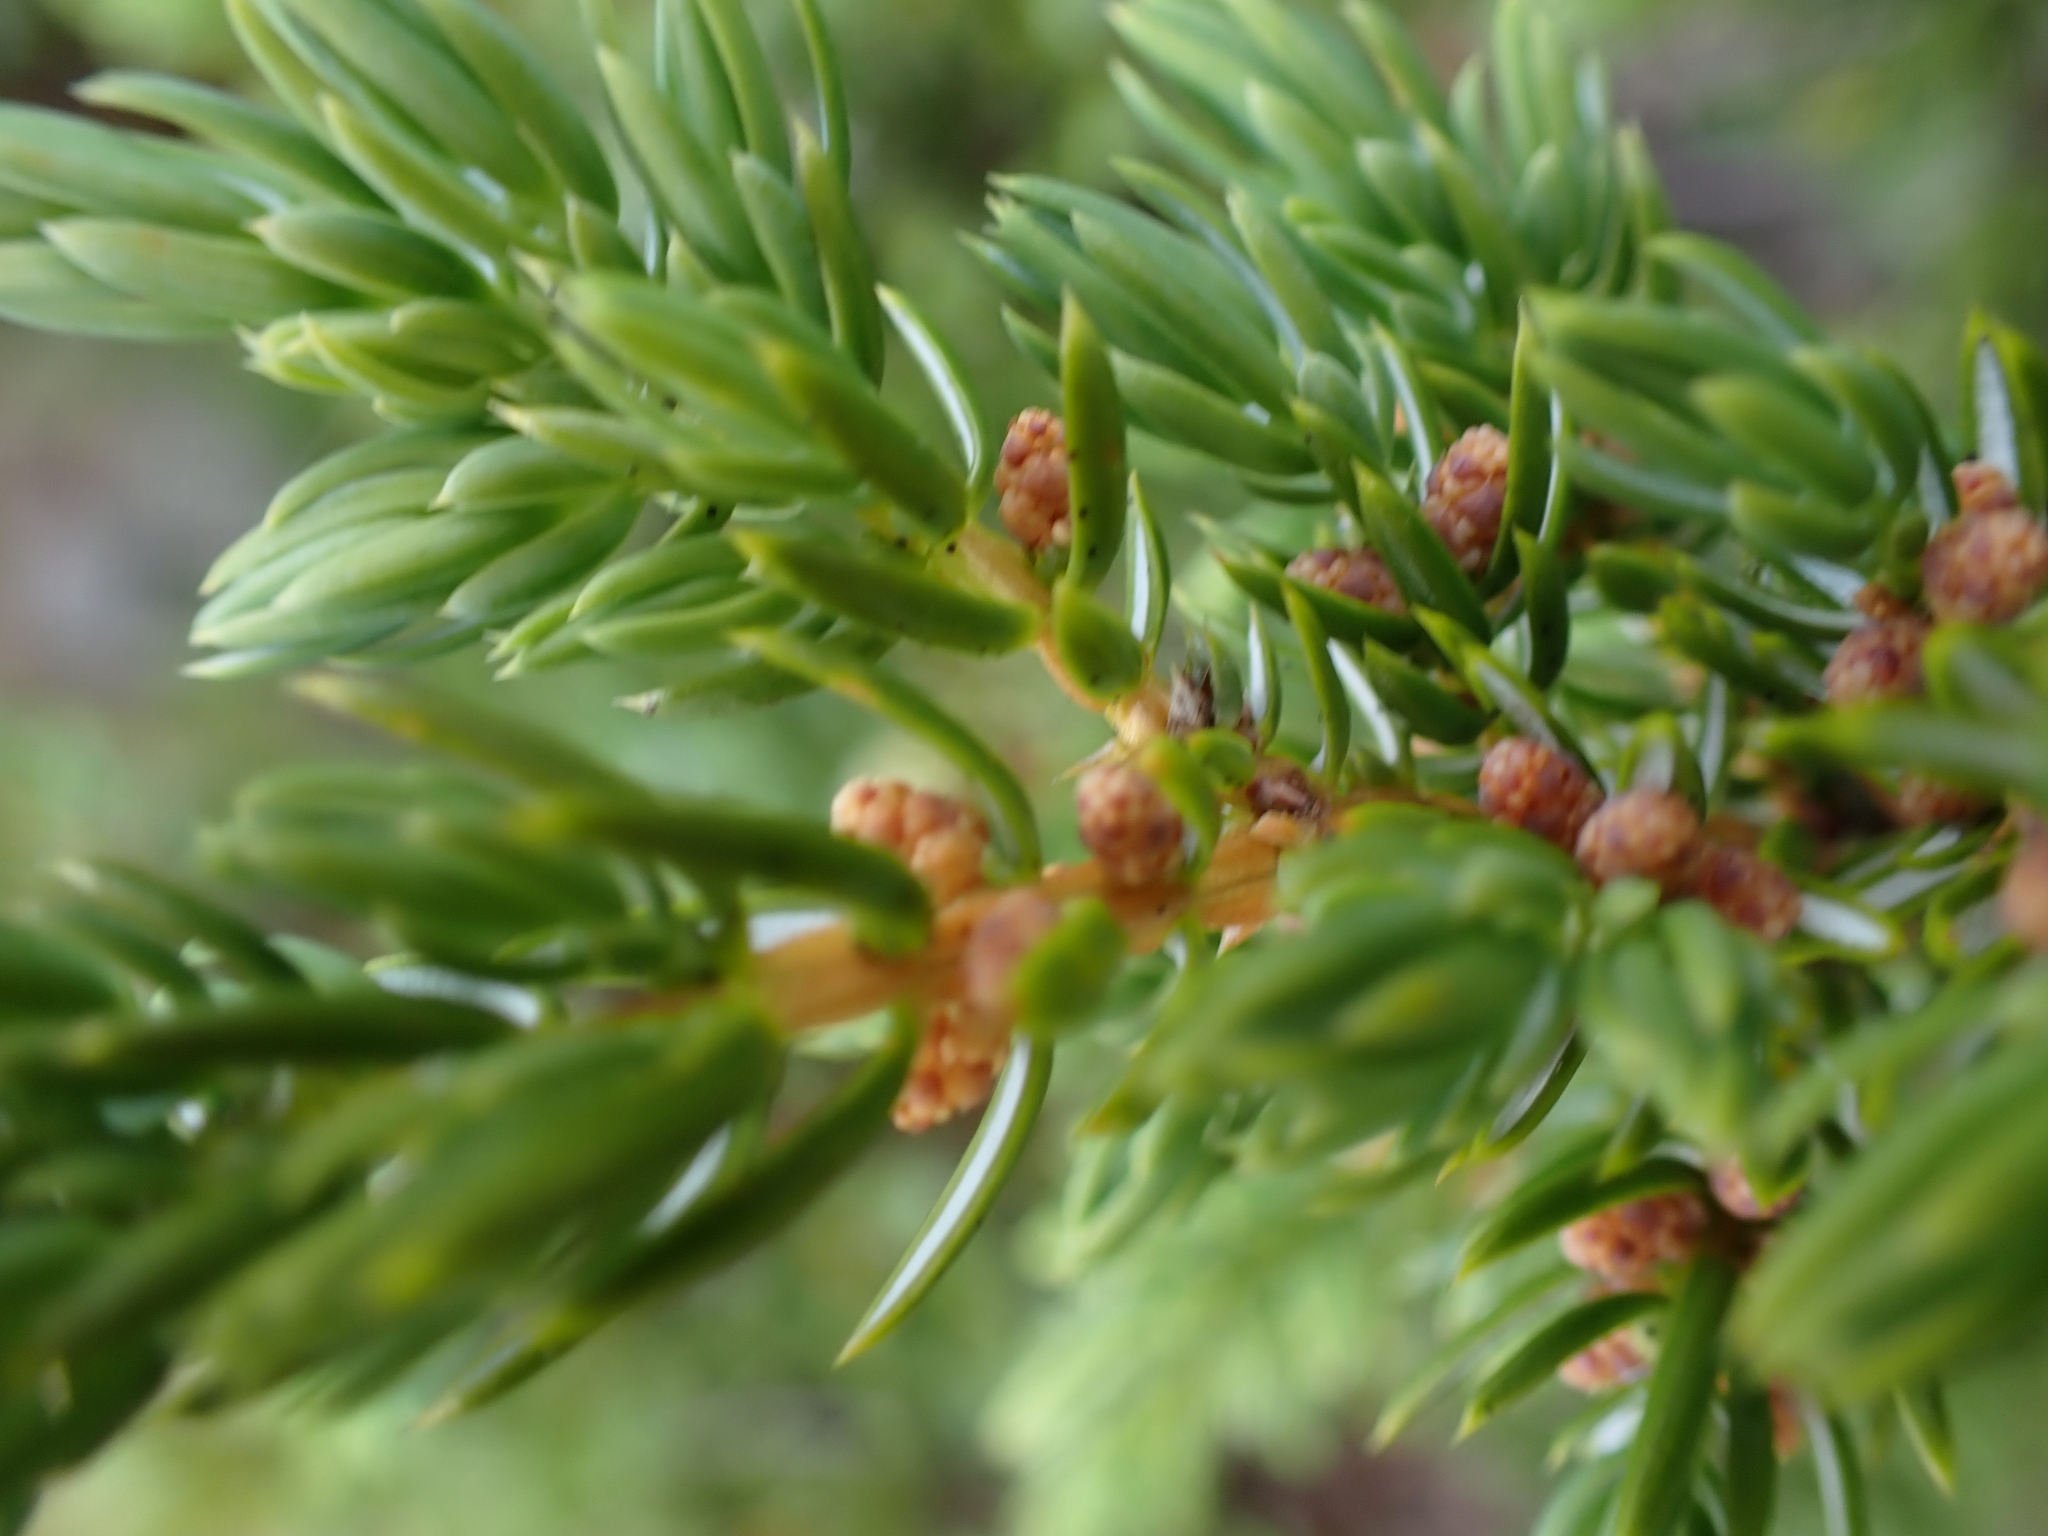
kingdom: Plantae
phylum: Tracheophyta
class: Pinopsida
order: Pinales
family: Cupressaceae
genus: Juniperus
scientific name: Juniperus communis
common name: Common juniper
